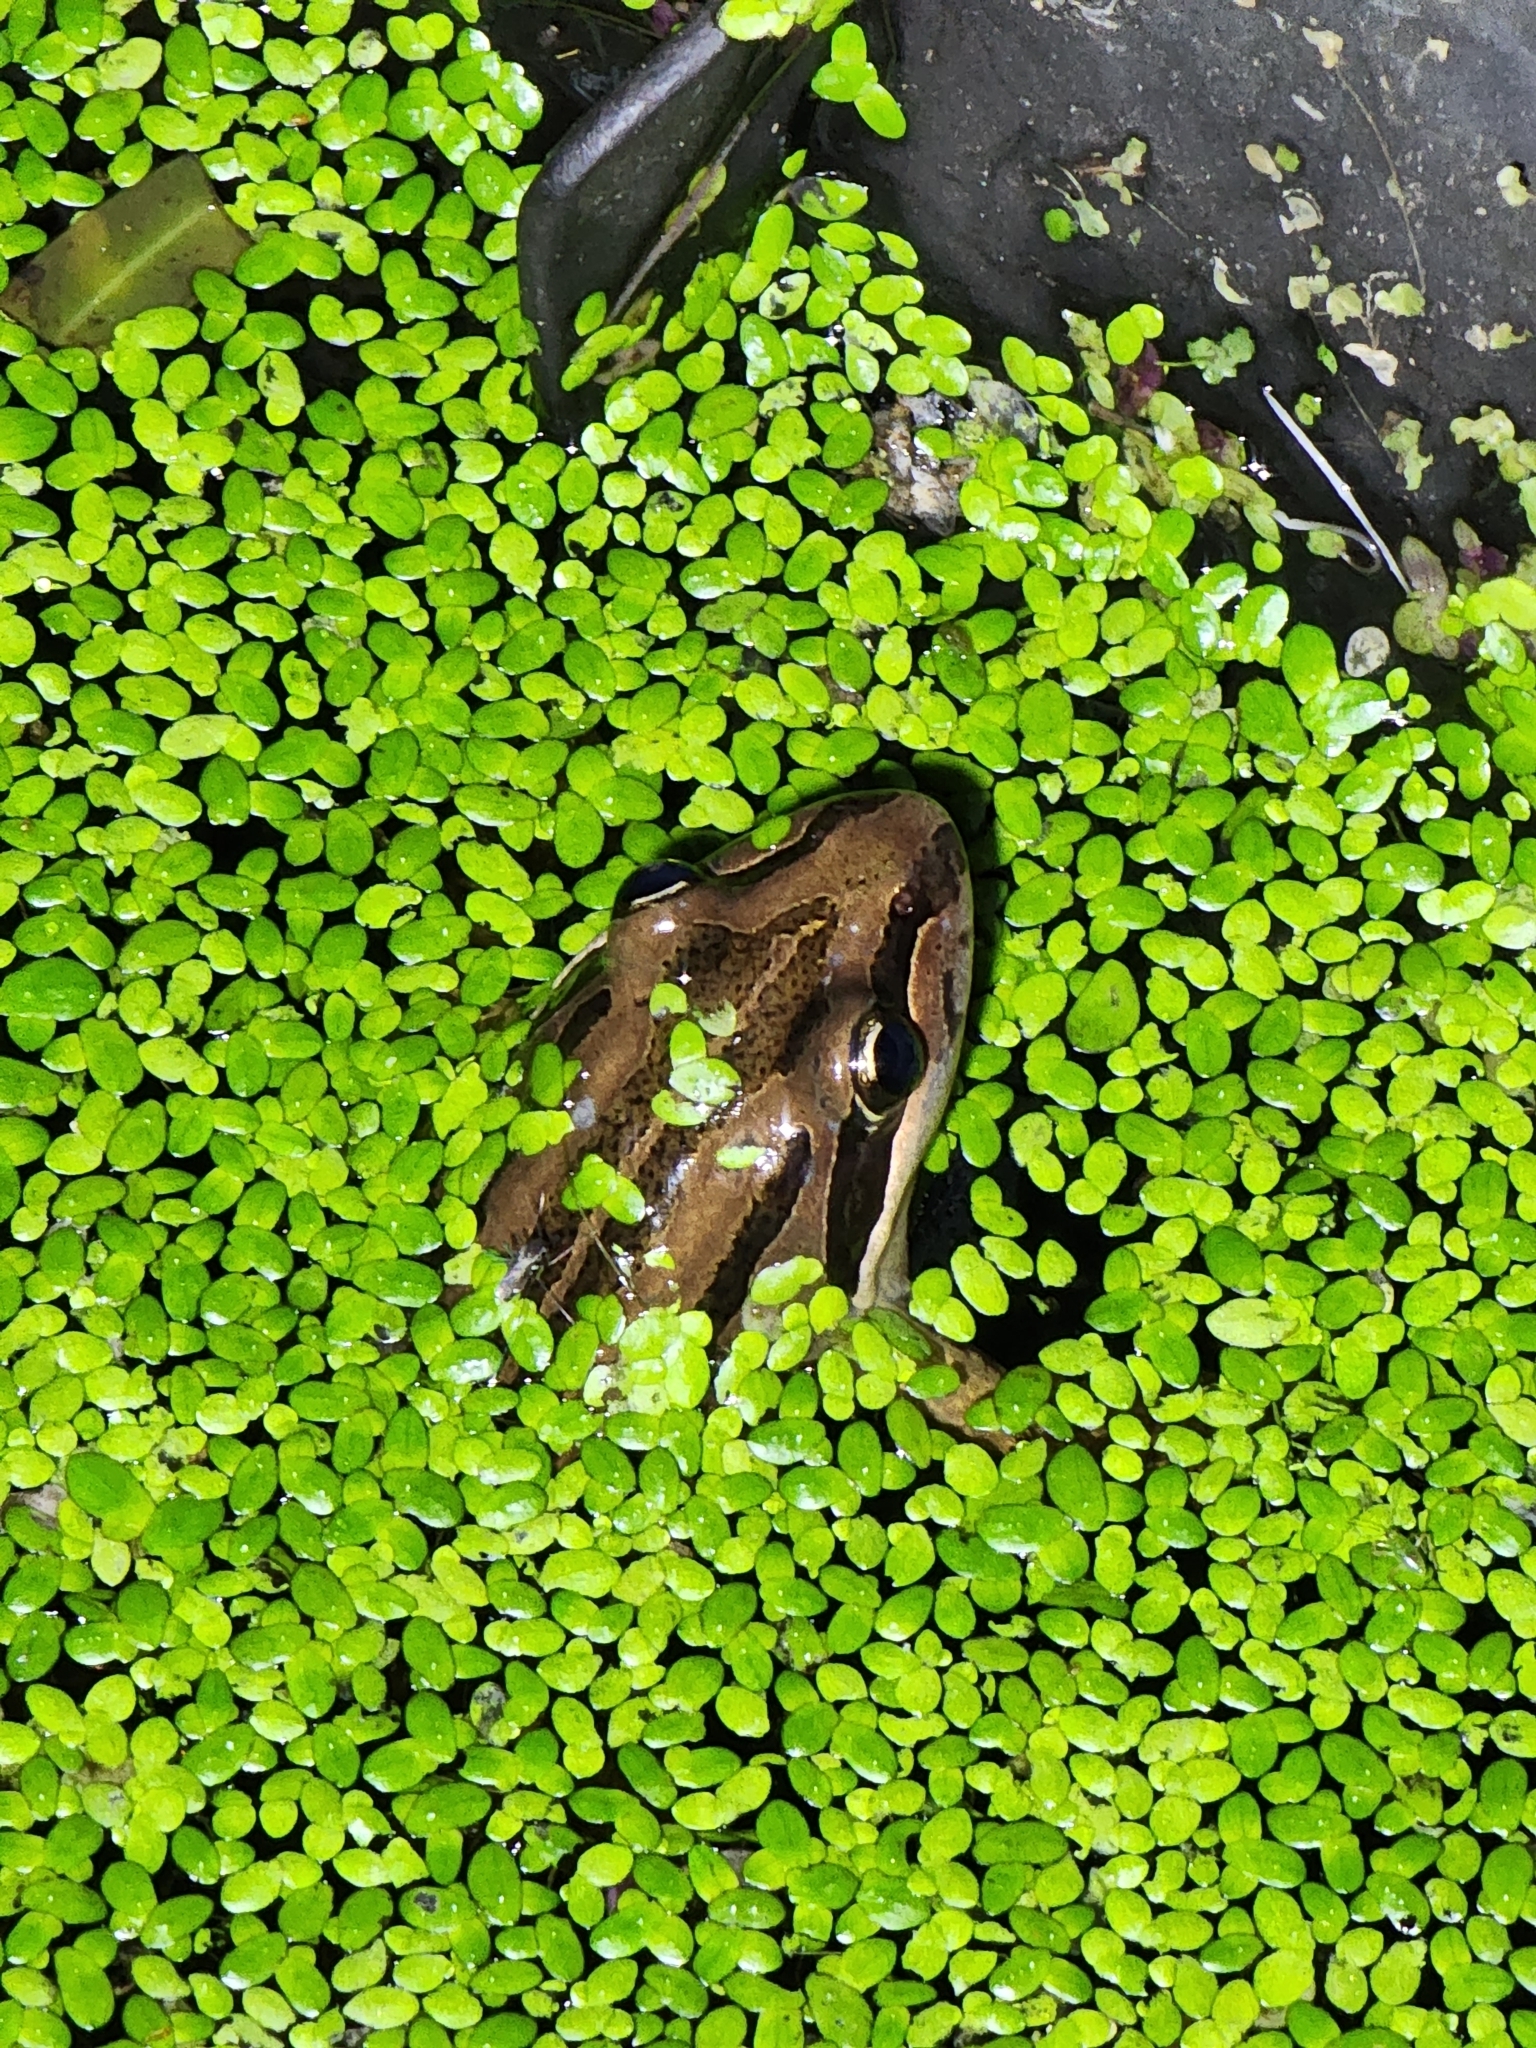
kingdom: Animalia
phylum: Chordata
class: Amphibia
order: Anura
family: Limnodynastidae
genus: Limnodynastes
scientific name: Limnodynastes peronii
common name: Brown frog
